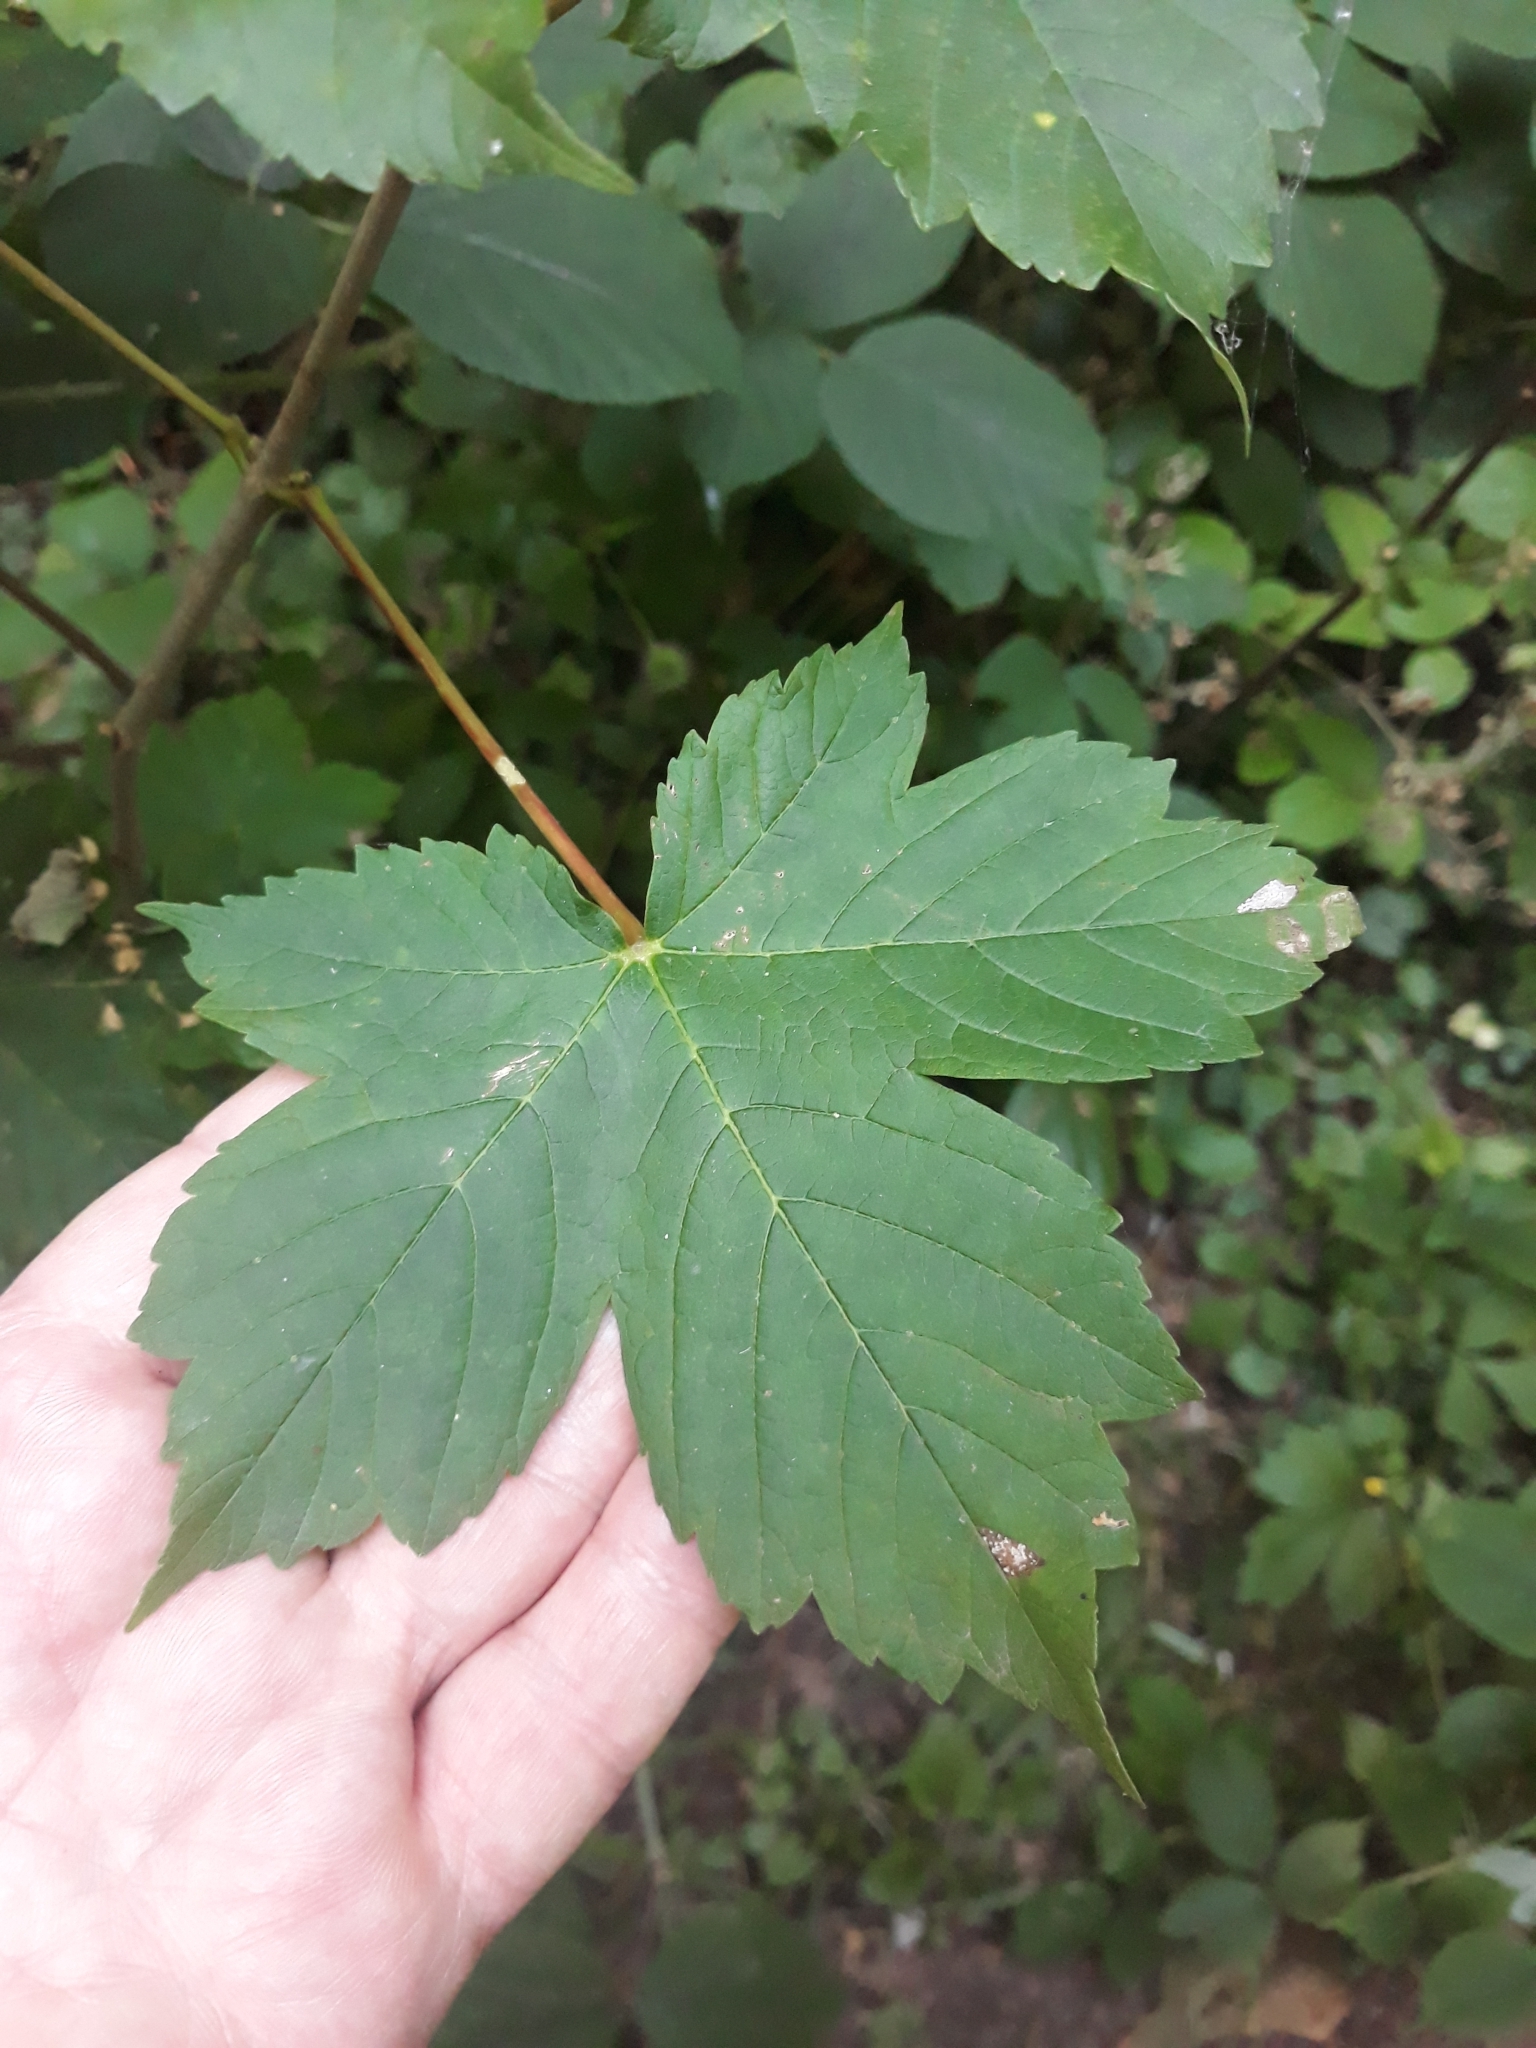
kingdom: Plantae
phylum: Tracheophyta
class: Magnoliopsida
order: Sapindales
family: Sapindaceae
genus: Acer
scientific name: Acer pseudoplatanus
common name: Sycamore
